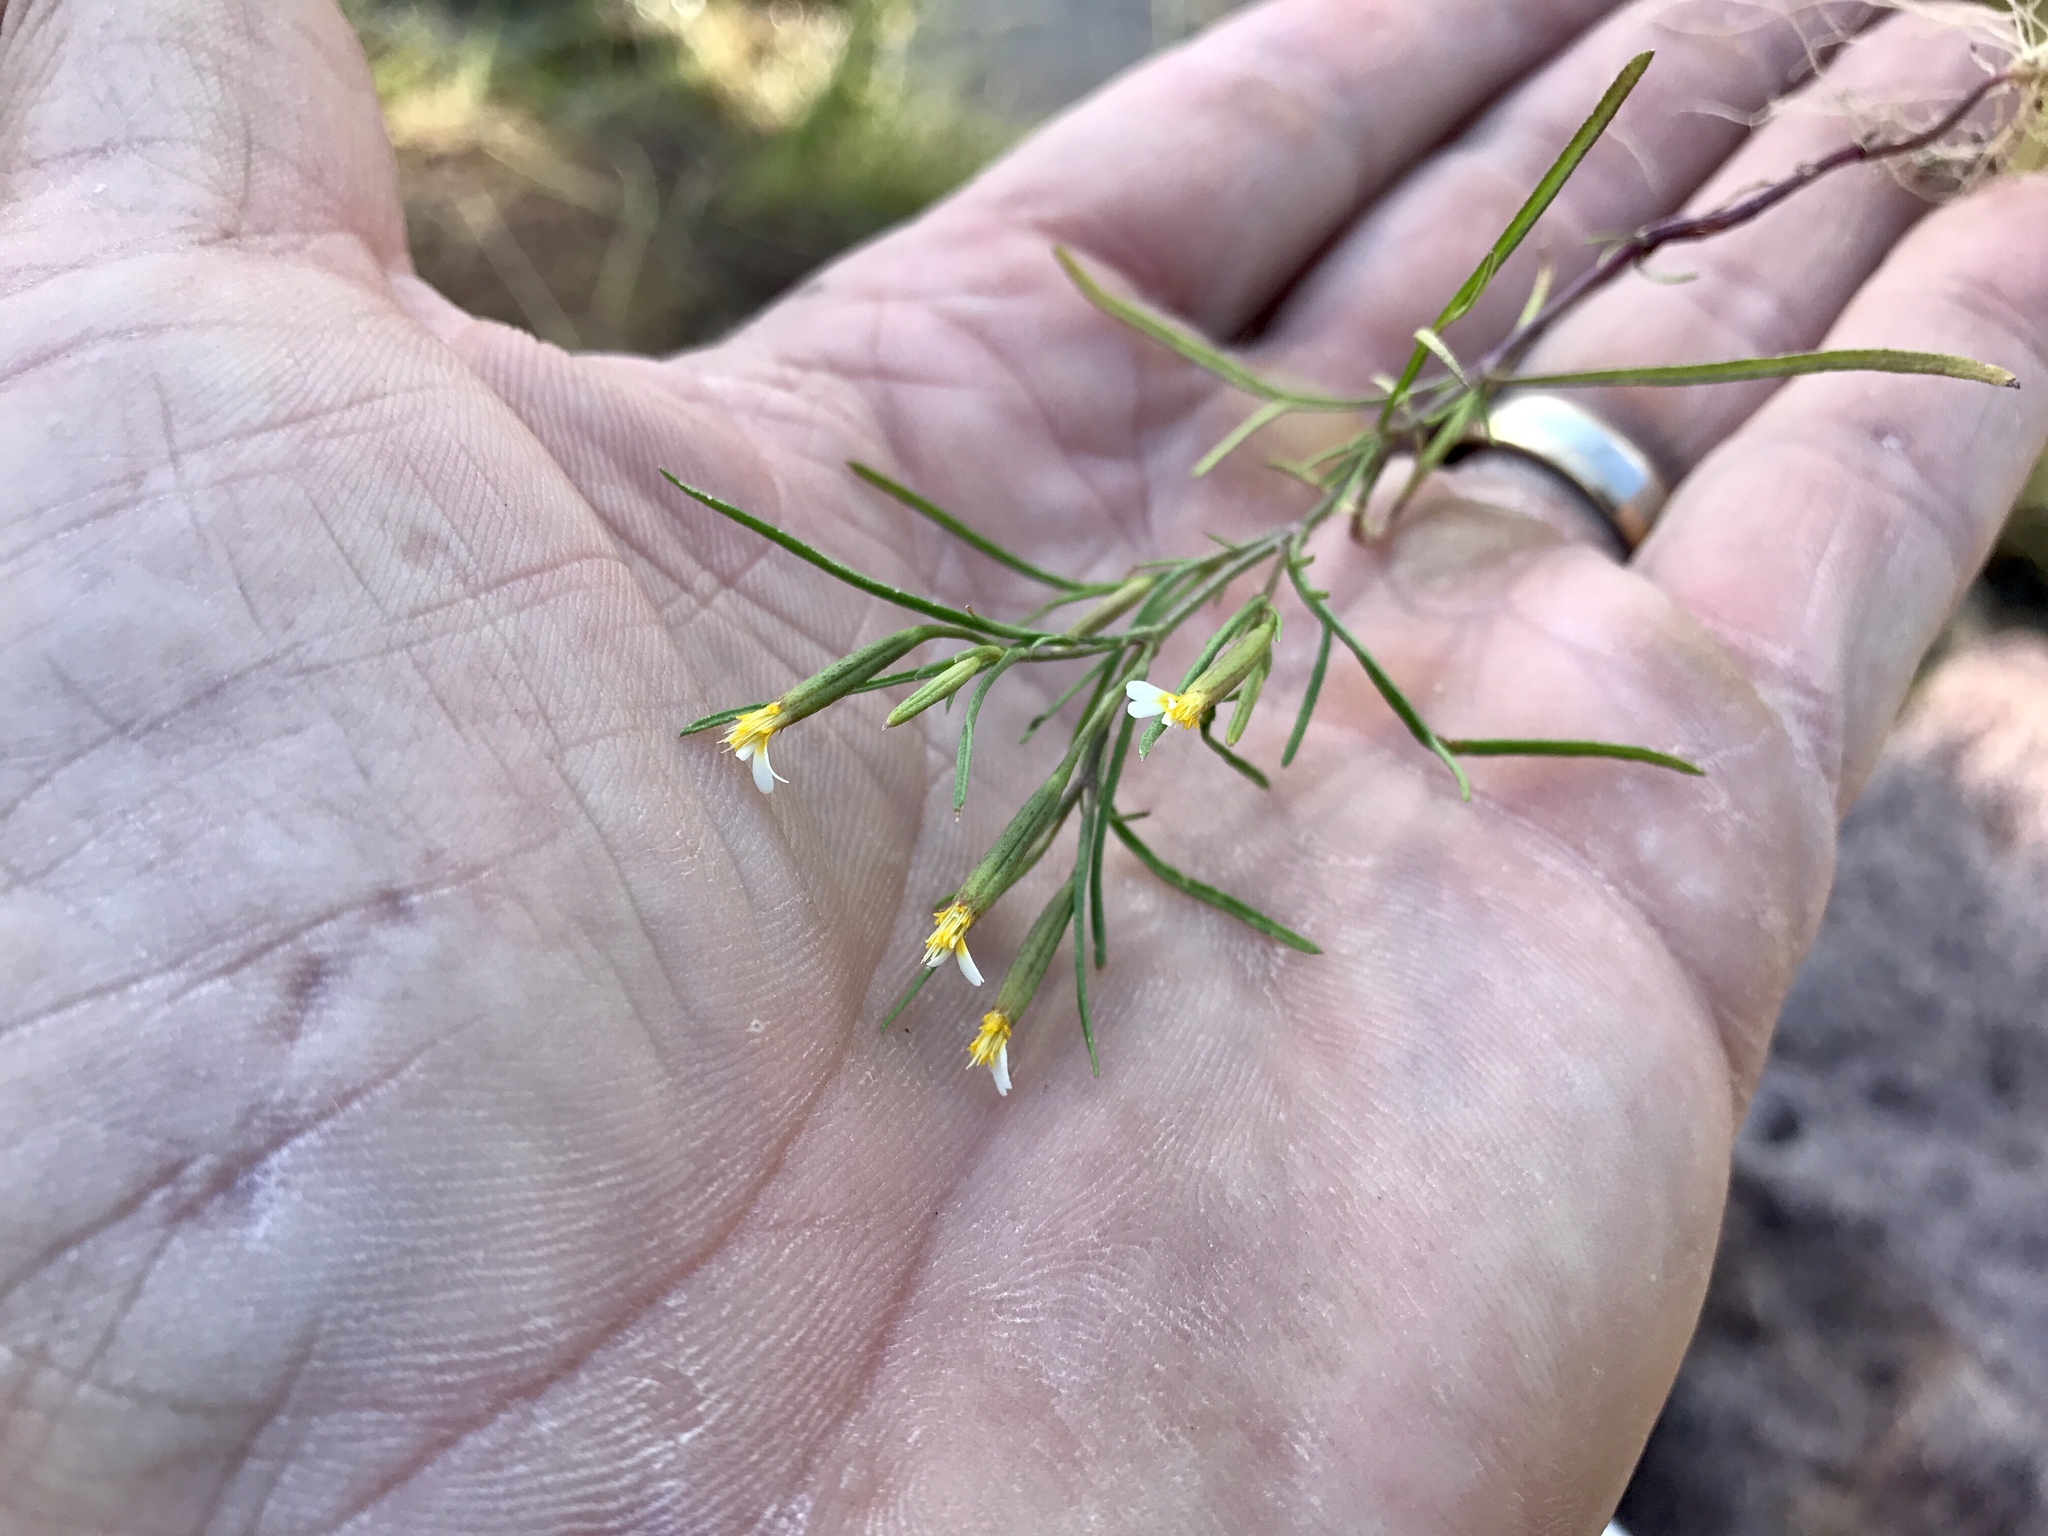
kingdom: Plantae
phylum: Tracheophyta
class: Magnoliopsida
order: Asterales
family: Asteraceae
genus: Tagetes
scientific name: Tagetes micrantha
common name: Licorice marigold
